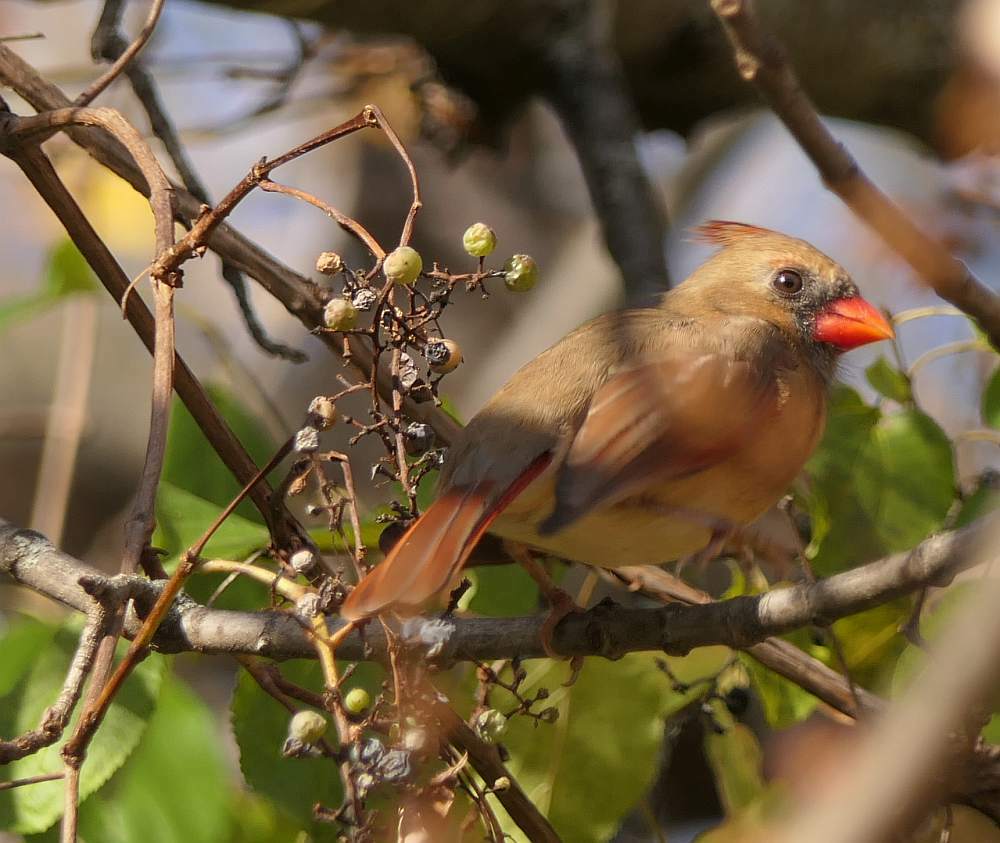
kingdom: Animalia
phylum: Chordata
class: Aves
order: Passeriformes
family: Cardinalidae
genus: Cardinalis
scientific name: Cardinalis cardinalis
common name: Northern cardinal
